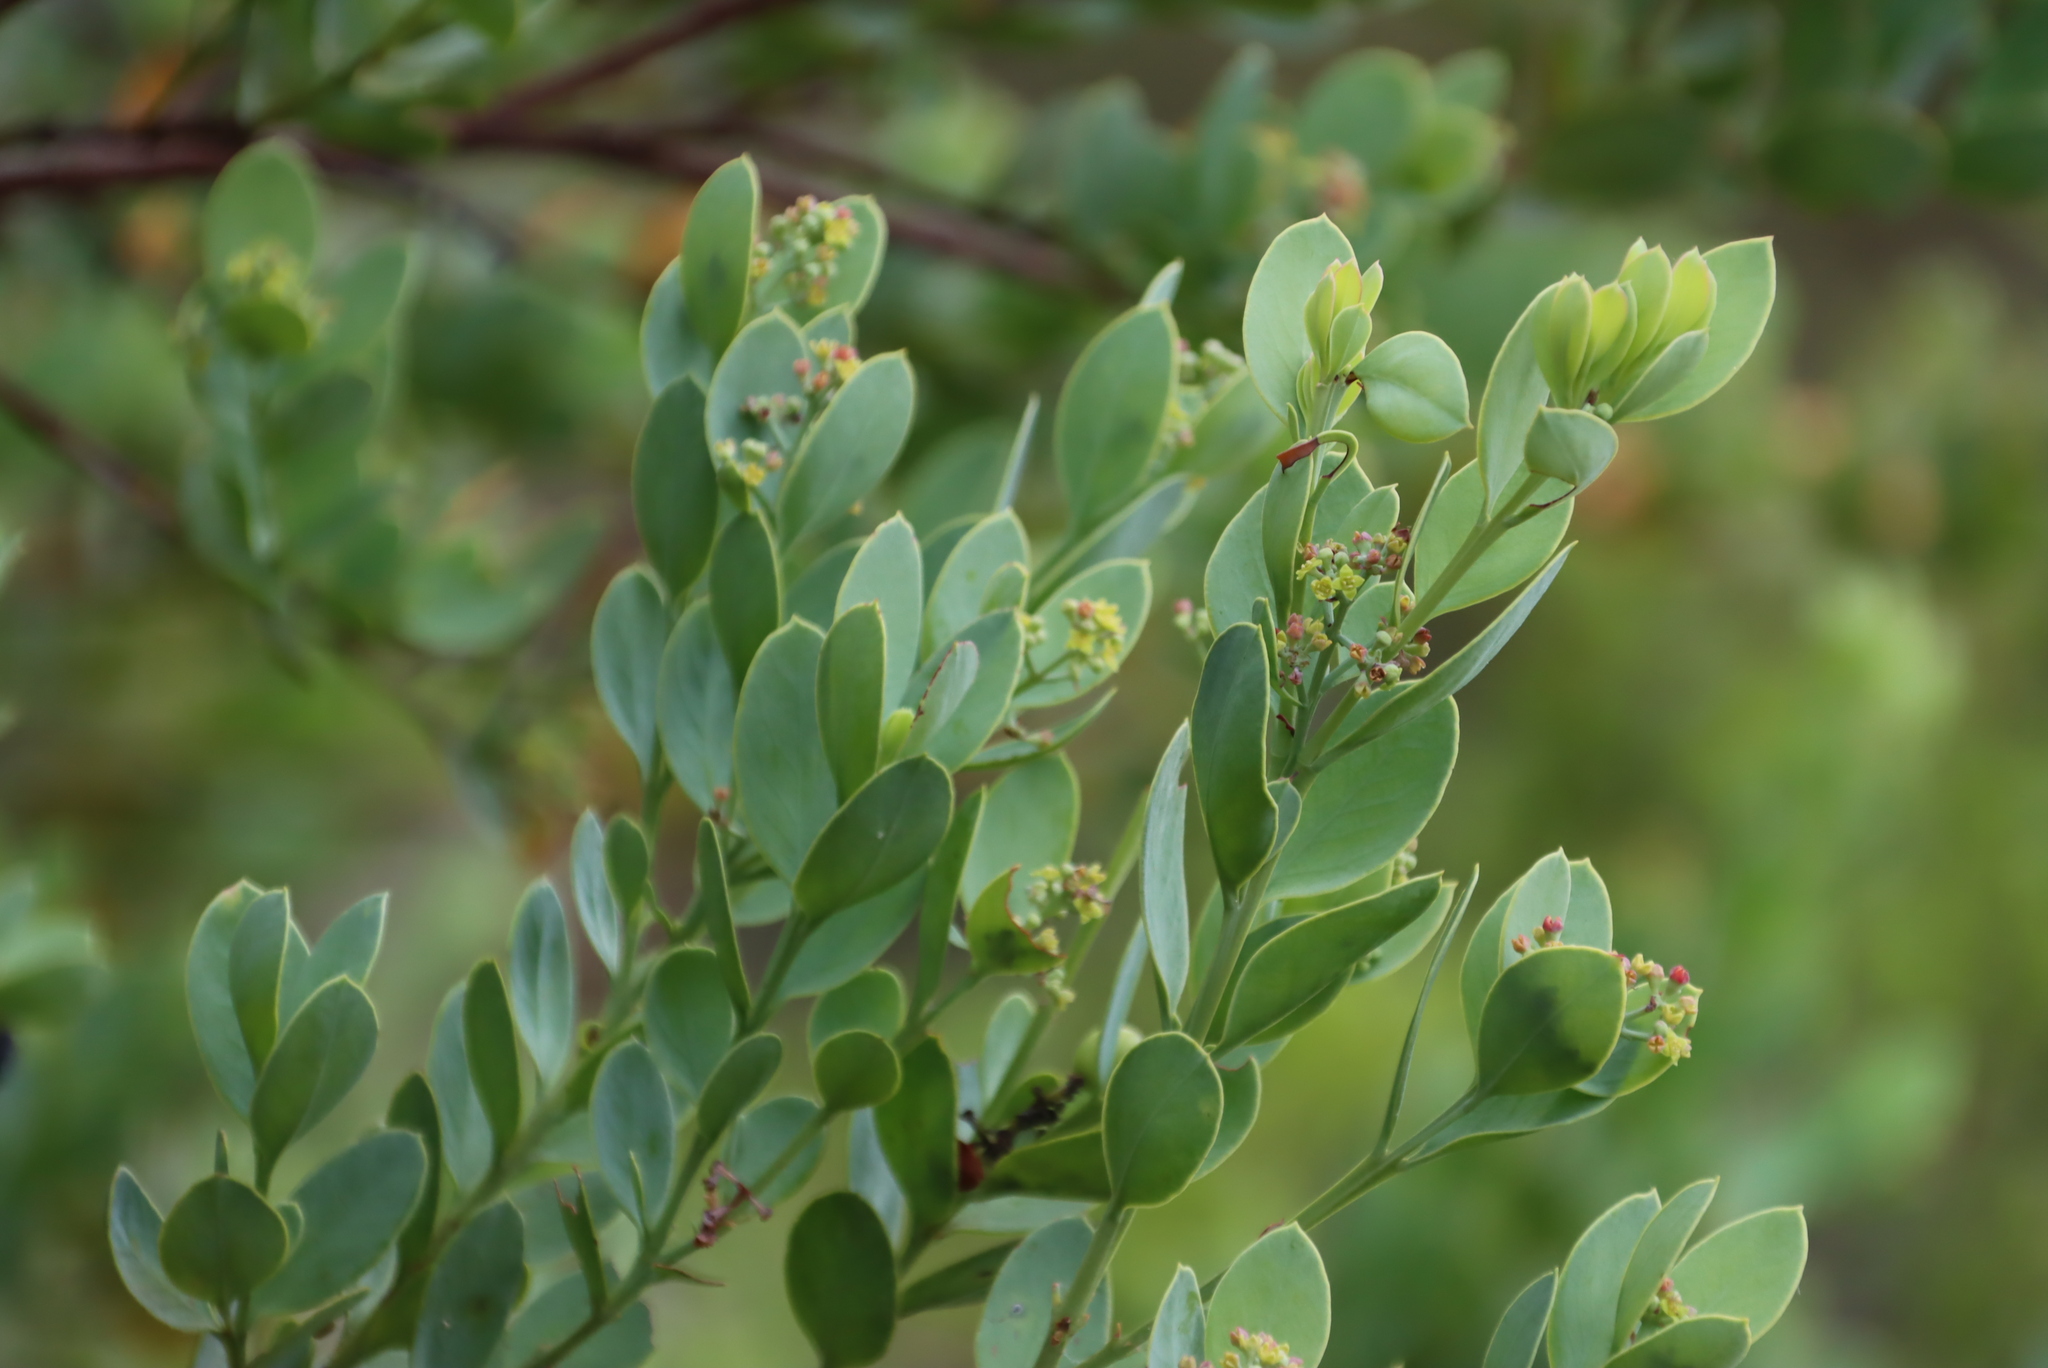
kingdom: Plantae
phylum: Tracheophyta
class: Magnoliopsida
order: Santalales
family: Santalaceae
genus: Osyris
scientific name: Osyris compressa
